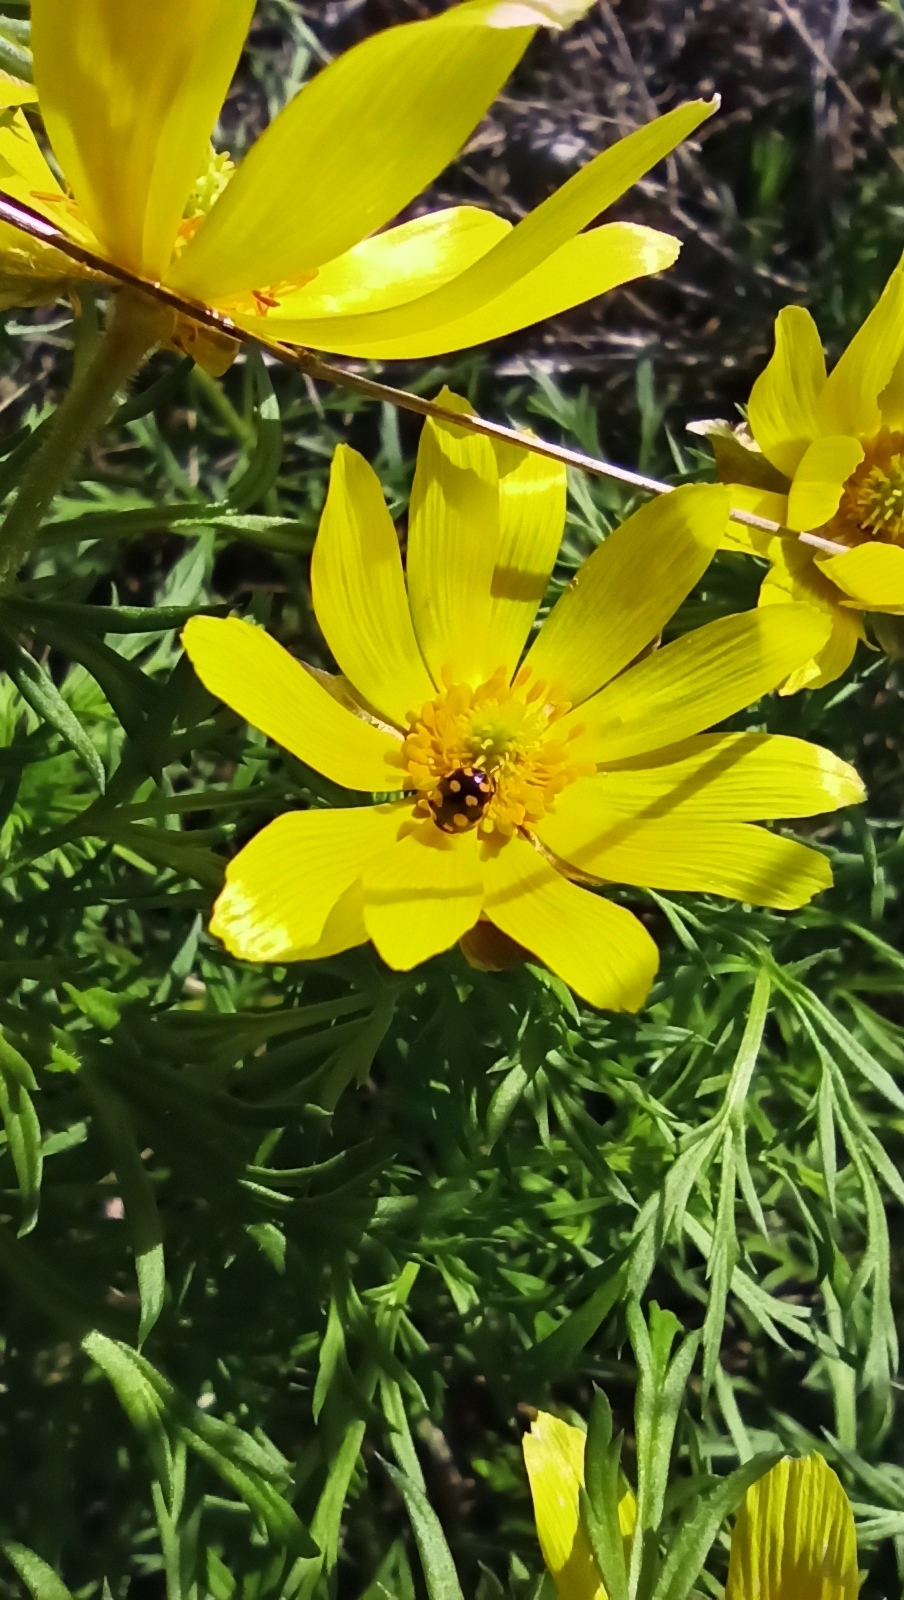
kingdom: Animalia
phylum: Arthropoda
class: Insecta
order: Coleoptera
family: Coccinellidae
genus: Coccinula
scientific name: Coccinula quatuordecimpustulata
